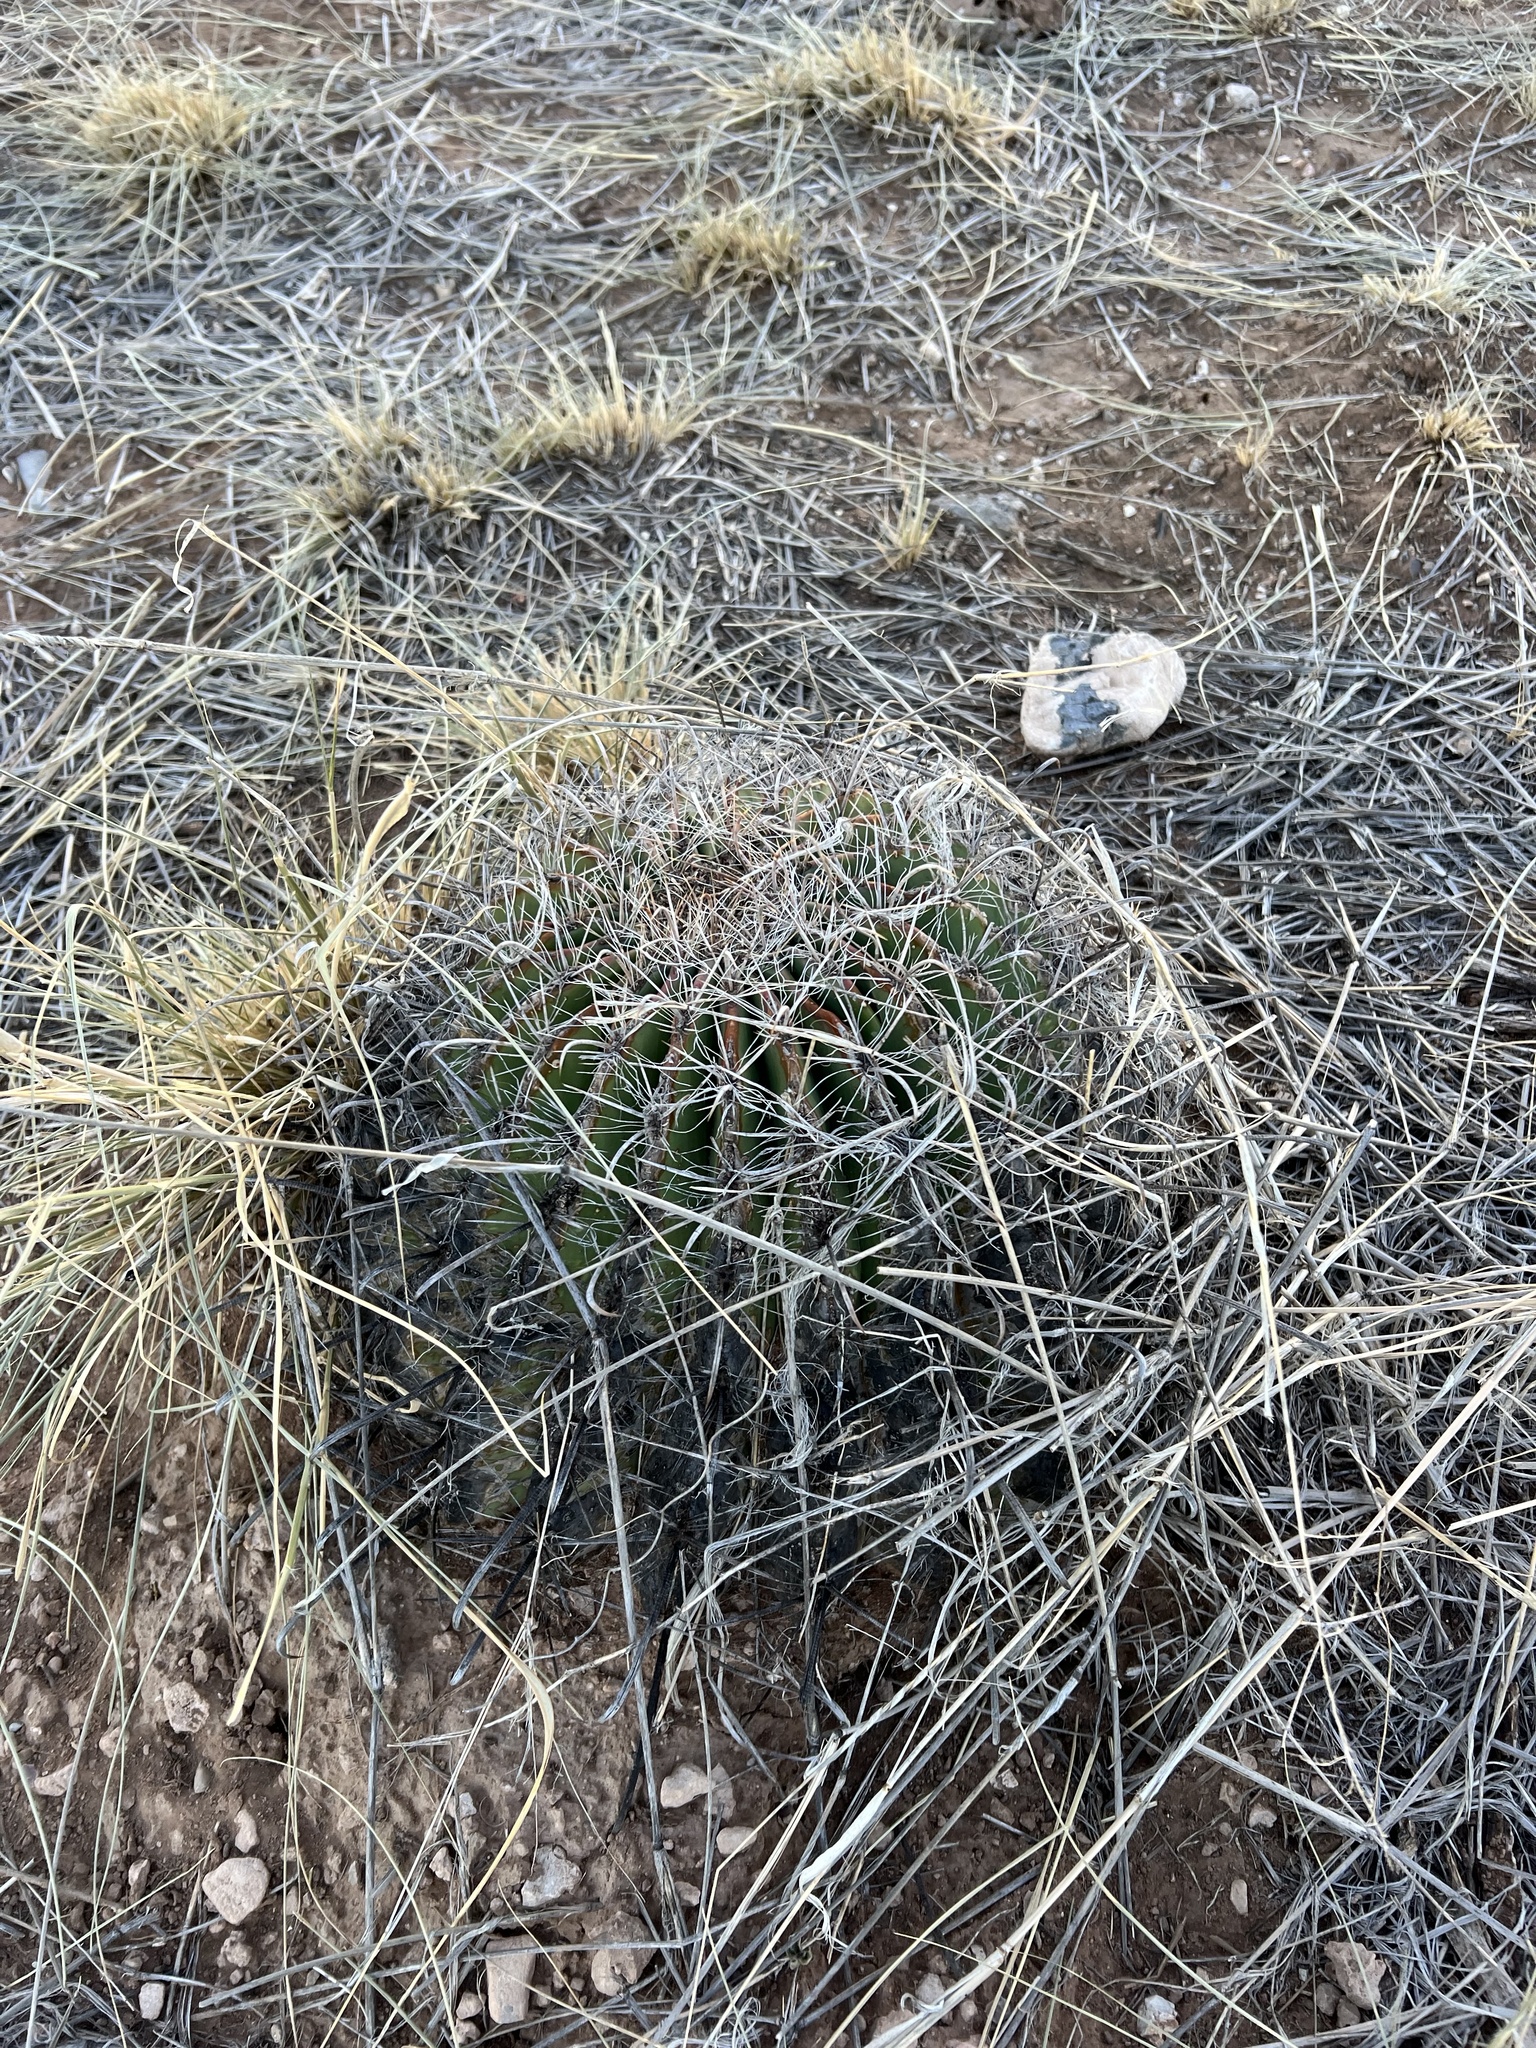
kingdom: Plantae
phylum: Tracheophyta
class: Magnoliopsida
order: Caryophyllales
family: Cactaceae
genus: Ferocactus
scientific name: Ferocactus wislizeni
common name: Candy barrel cactus
